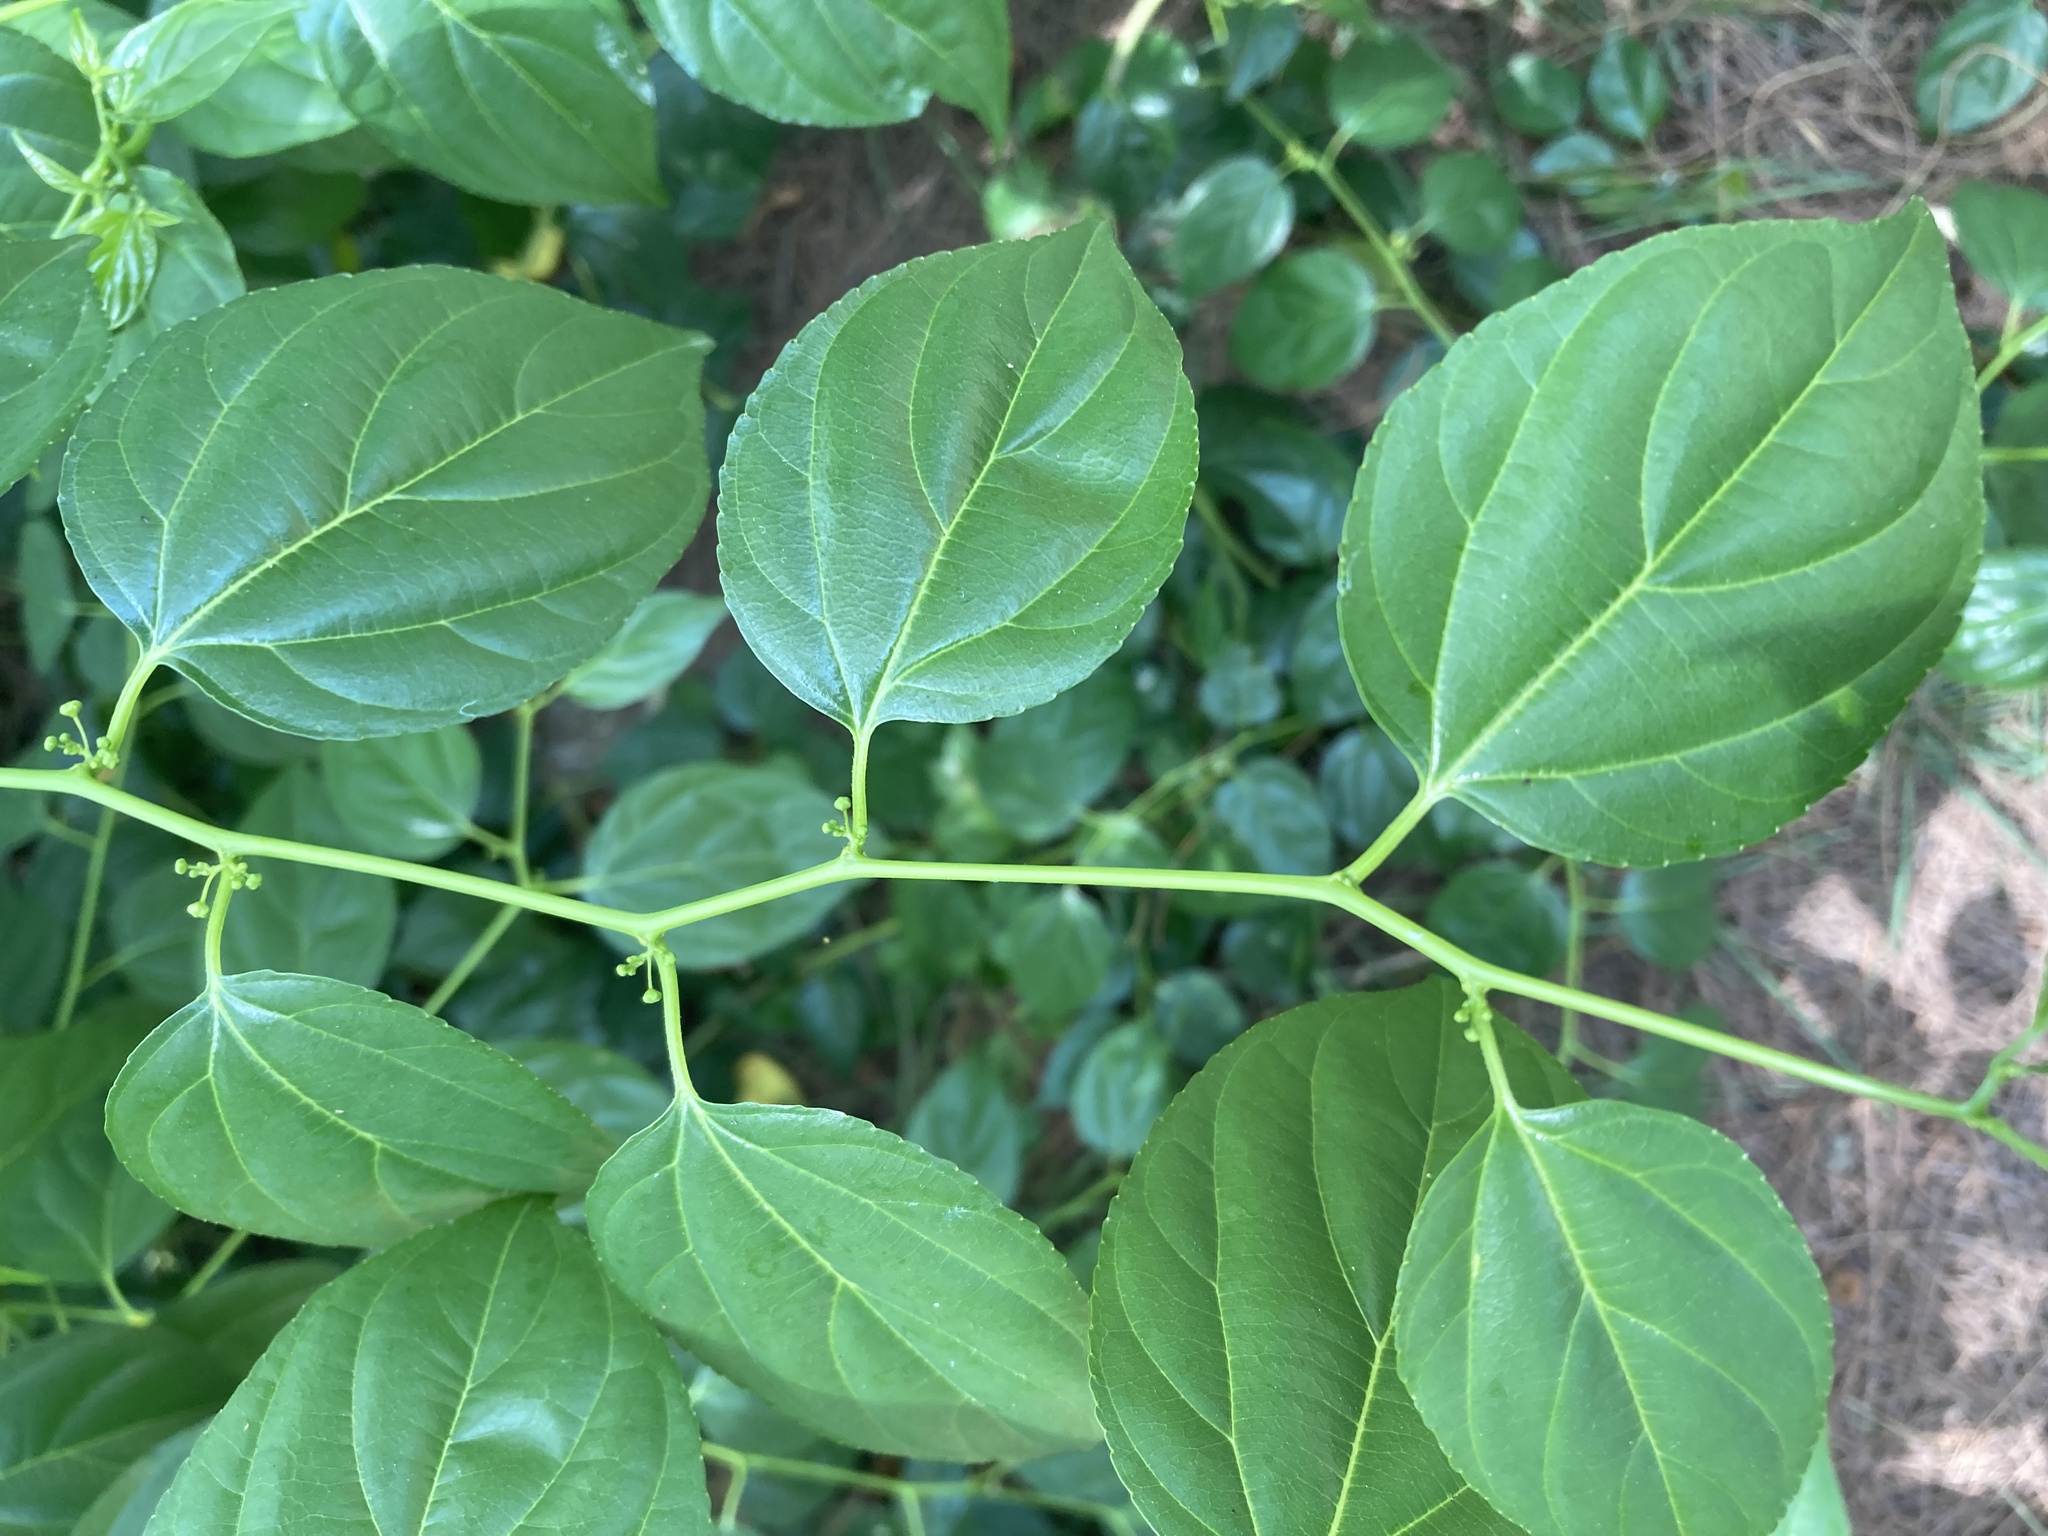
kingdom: Plantae
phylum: Tracheophyta
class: Magnoliopsida
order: Rosales
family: Rhamnaceae
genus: Colubrina
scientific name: Colubrina asiatica
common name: Asian nakedwood
